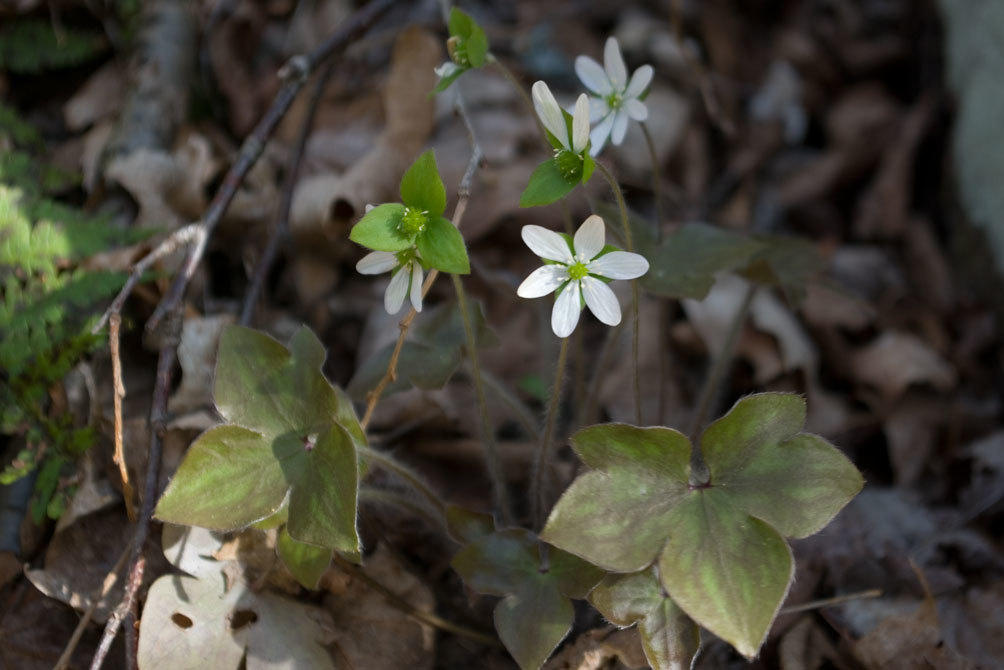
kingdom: Plantae
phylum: Tracheophyta
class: Magnoliopsida
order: Ranunculales
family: Ranunculaceae
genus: Hepatica
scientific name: Hepatica acutiloba
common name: Sharp-lobed hepatica
